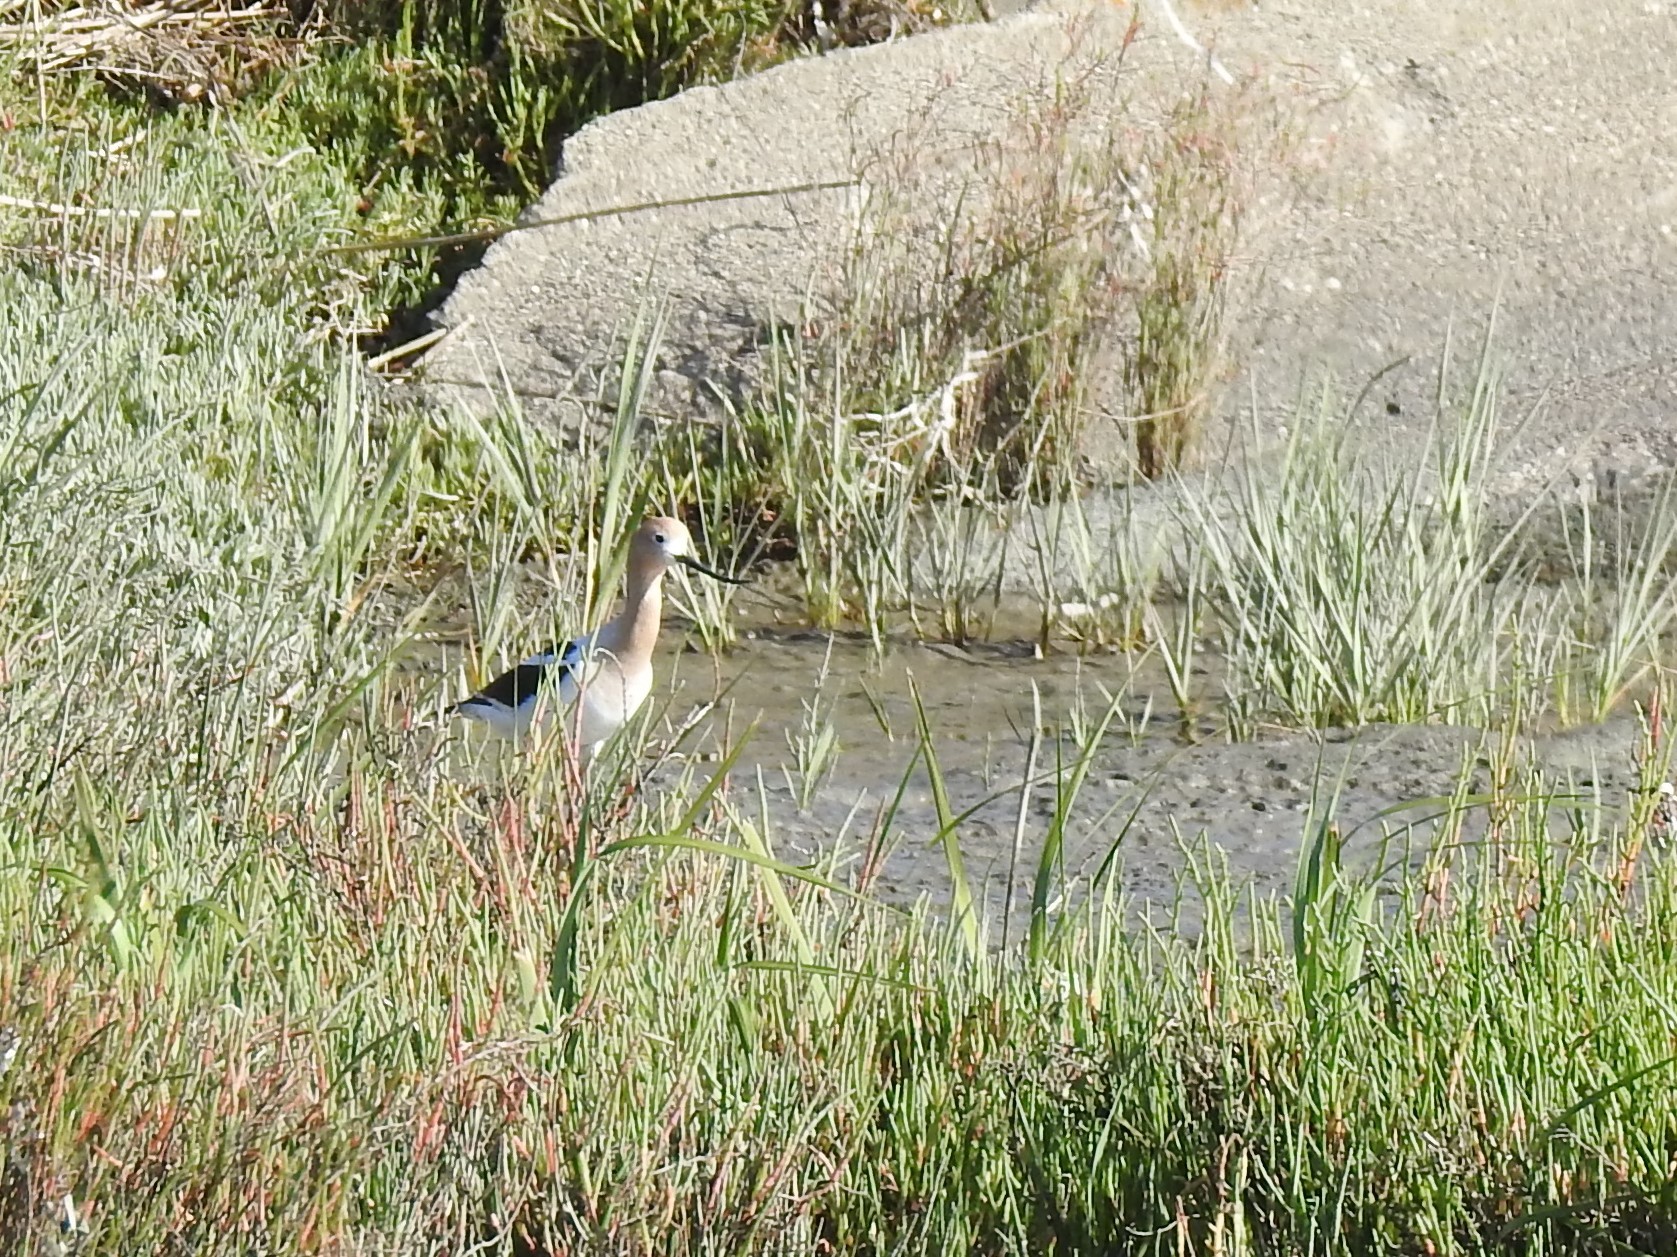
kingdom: Animalia
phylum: Chordata
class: Aves
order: Charadriiformes
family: Recurvirostridae
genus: Recurvirostra
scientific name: Recurvirostra americana
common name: American avocet
